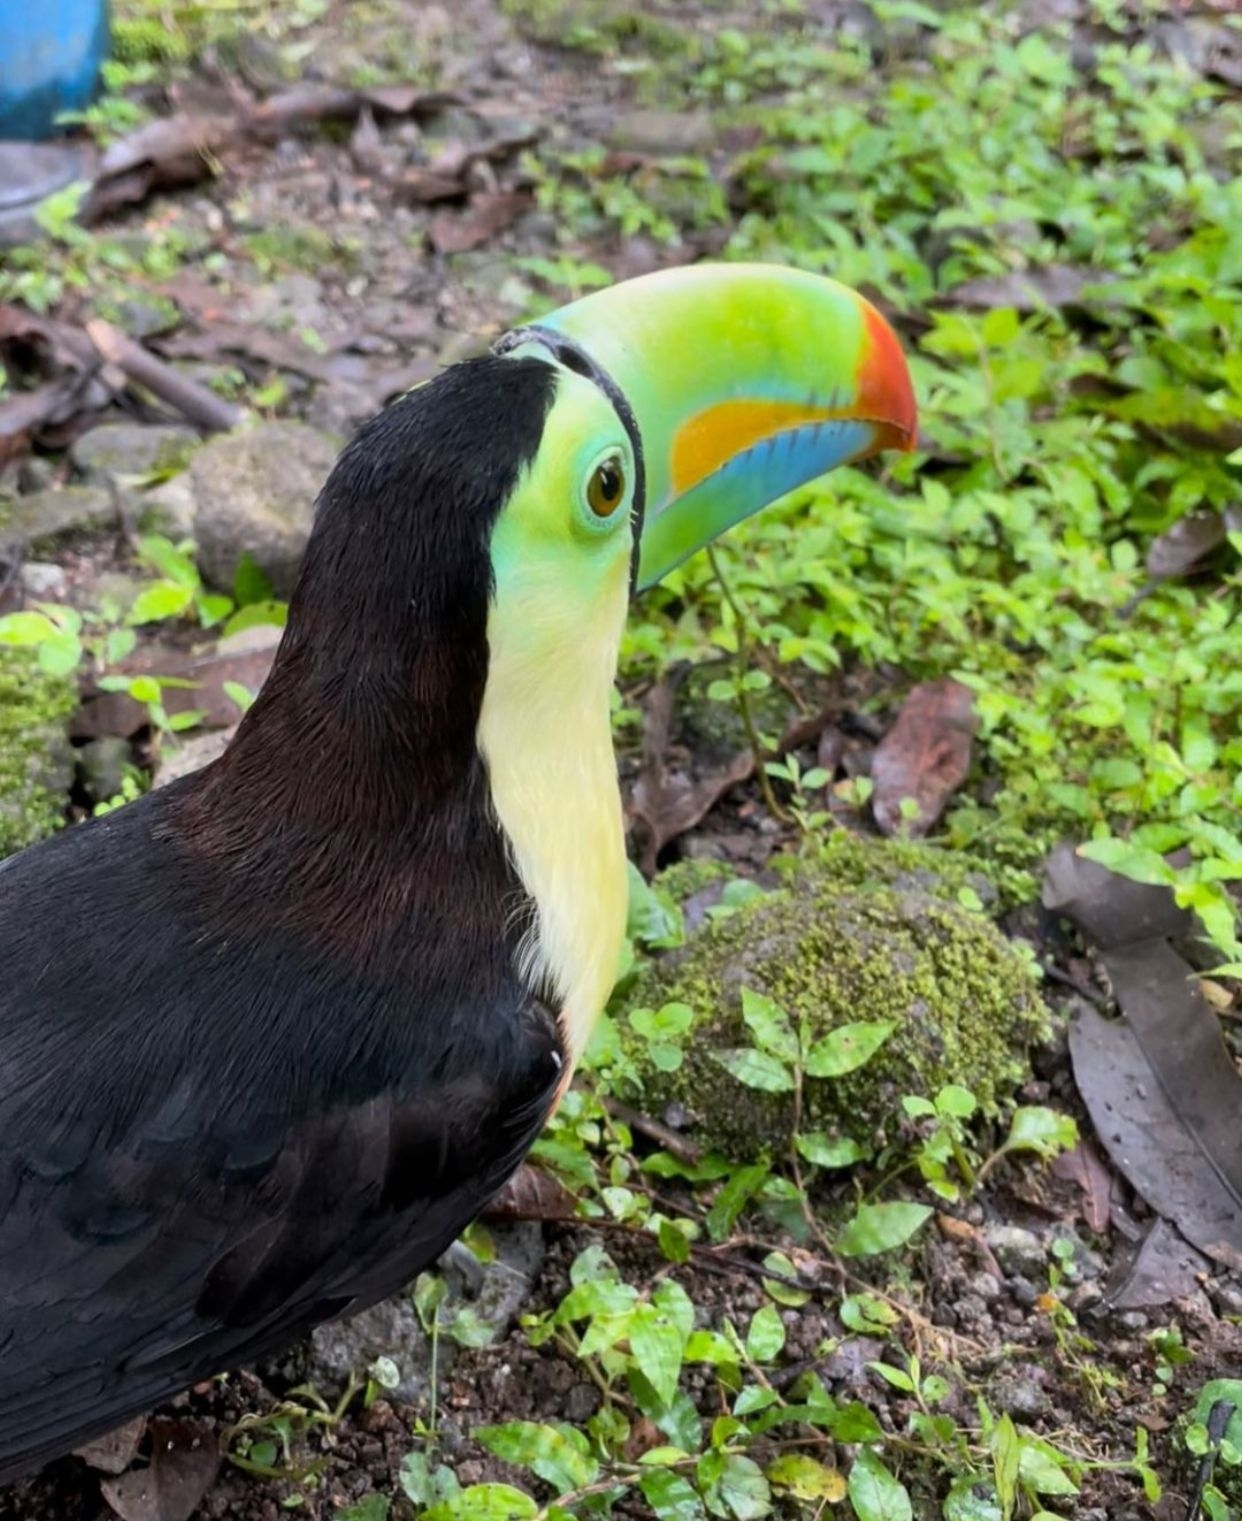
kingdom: Animalia
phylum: Chordata
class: Aves
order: Piciformes
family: Ramphastidae
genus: Ramphastos
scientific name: Ramphastos sulfuratus
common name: Keel-billed toucan
